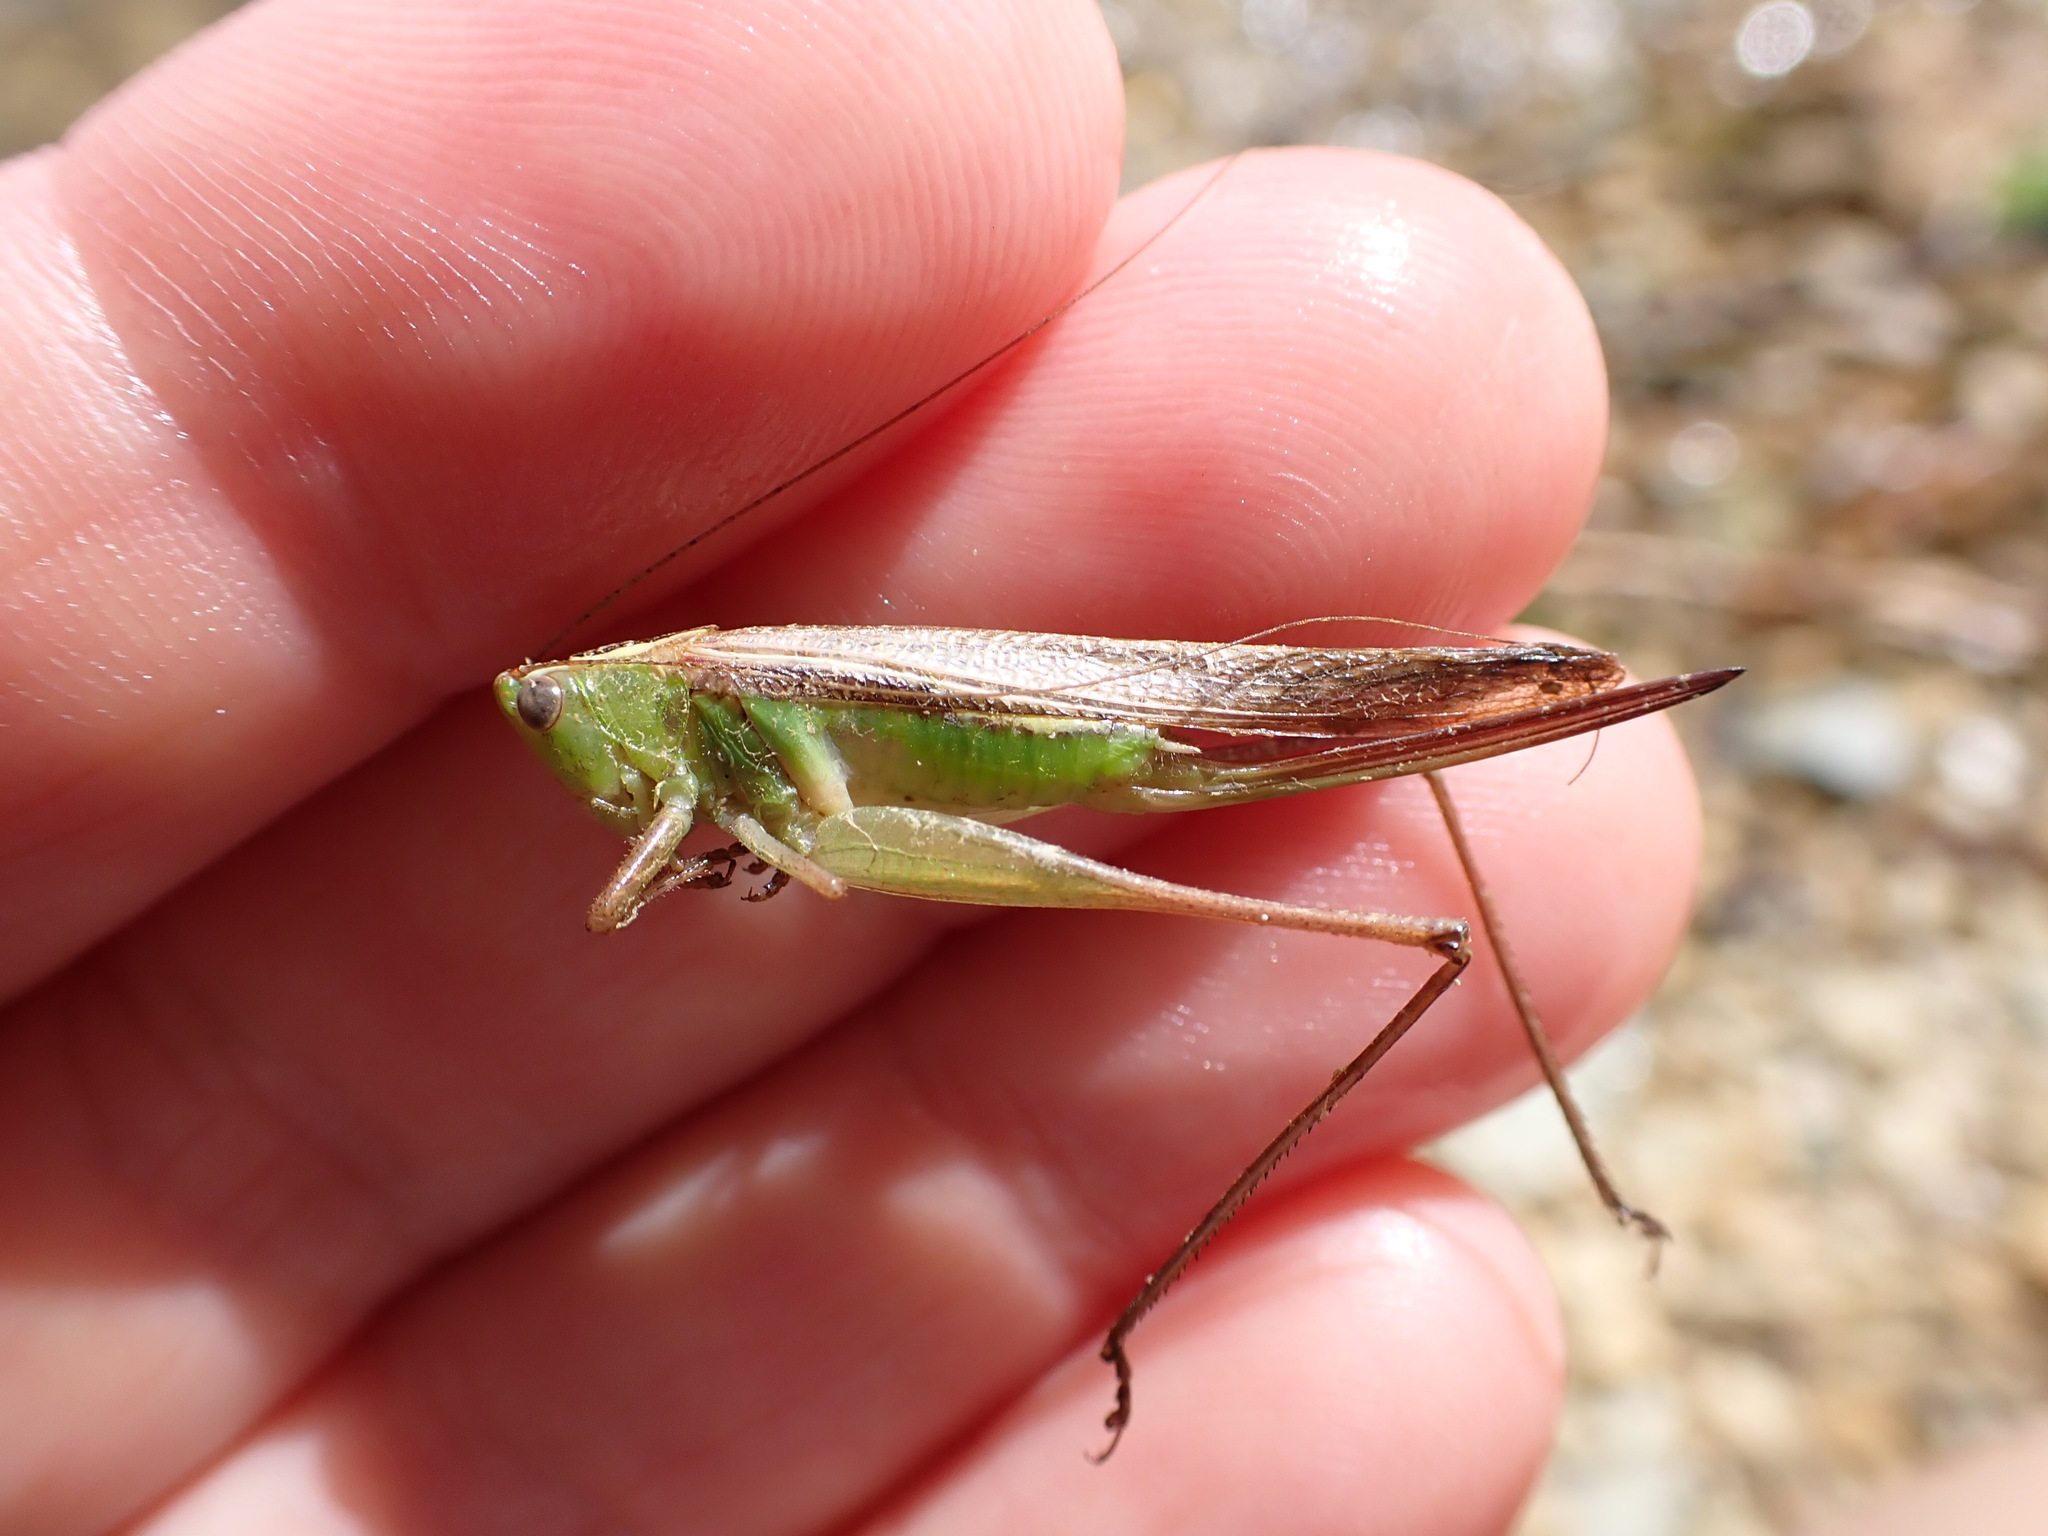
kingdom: Animalia
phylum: Arthropoda
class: Insecta
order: Orthoptera
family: Tettigoniidae
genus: Conocephalus
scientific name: Conocephalus albescens
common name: Whitish meadow katydid
